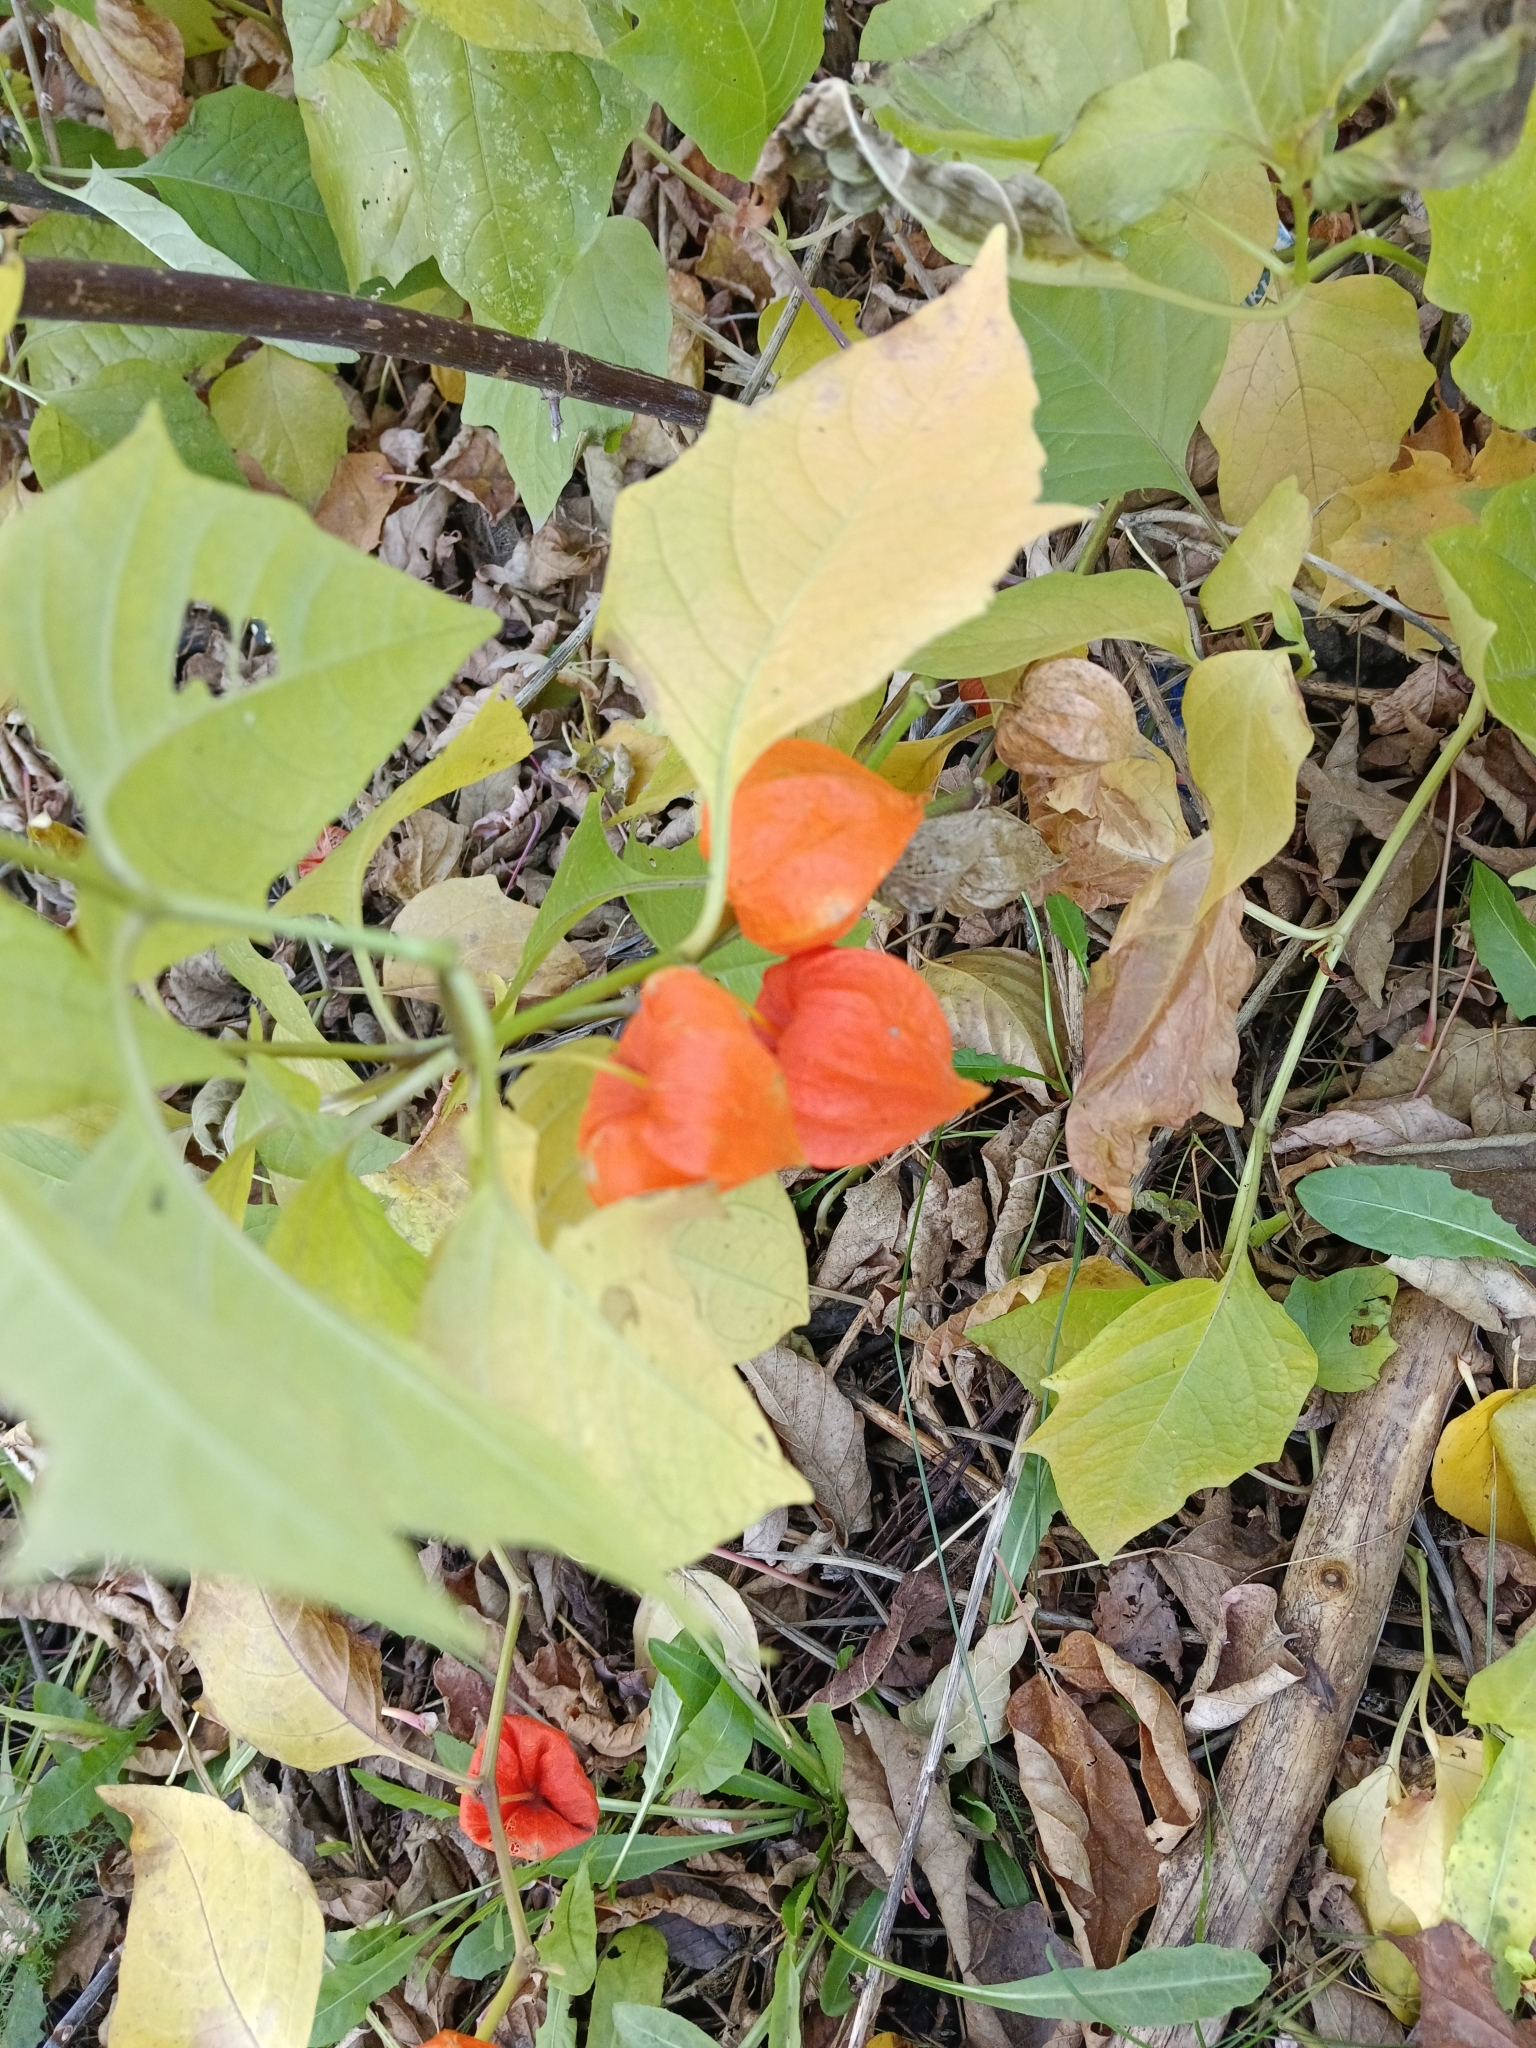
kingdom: Plantae
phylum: Tracheophyta
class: Magnoliopsida
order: Solanales
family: Solanaceae
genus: Alkekengi
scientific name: Alkekengi officinarum
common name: Japanese-lantern
